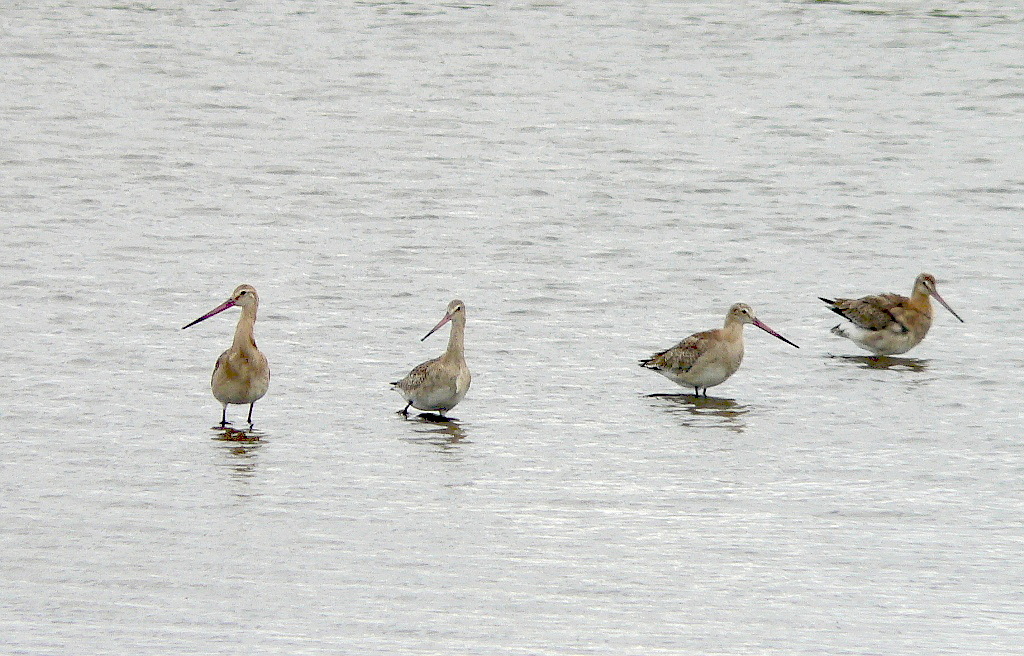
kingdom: Animalia
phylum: Chordata
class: Aves
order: Charadriiformes
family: Scolopacidae
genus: Limosa
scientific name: Limosa limosa
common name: Black-tailed godwit
